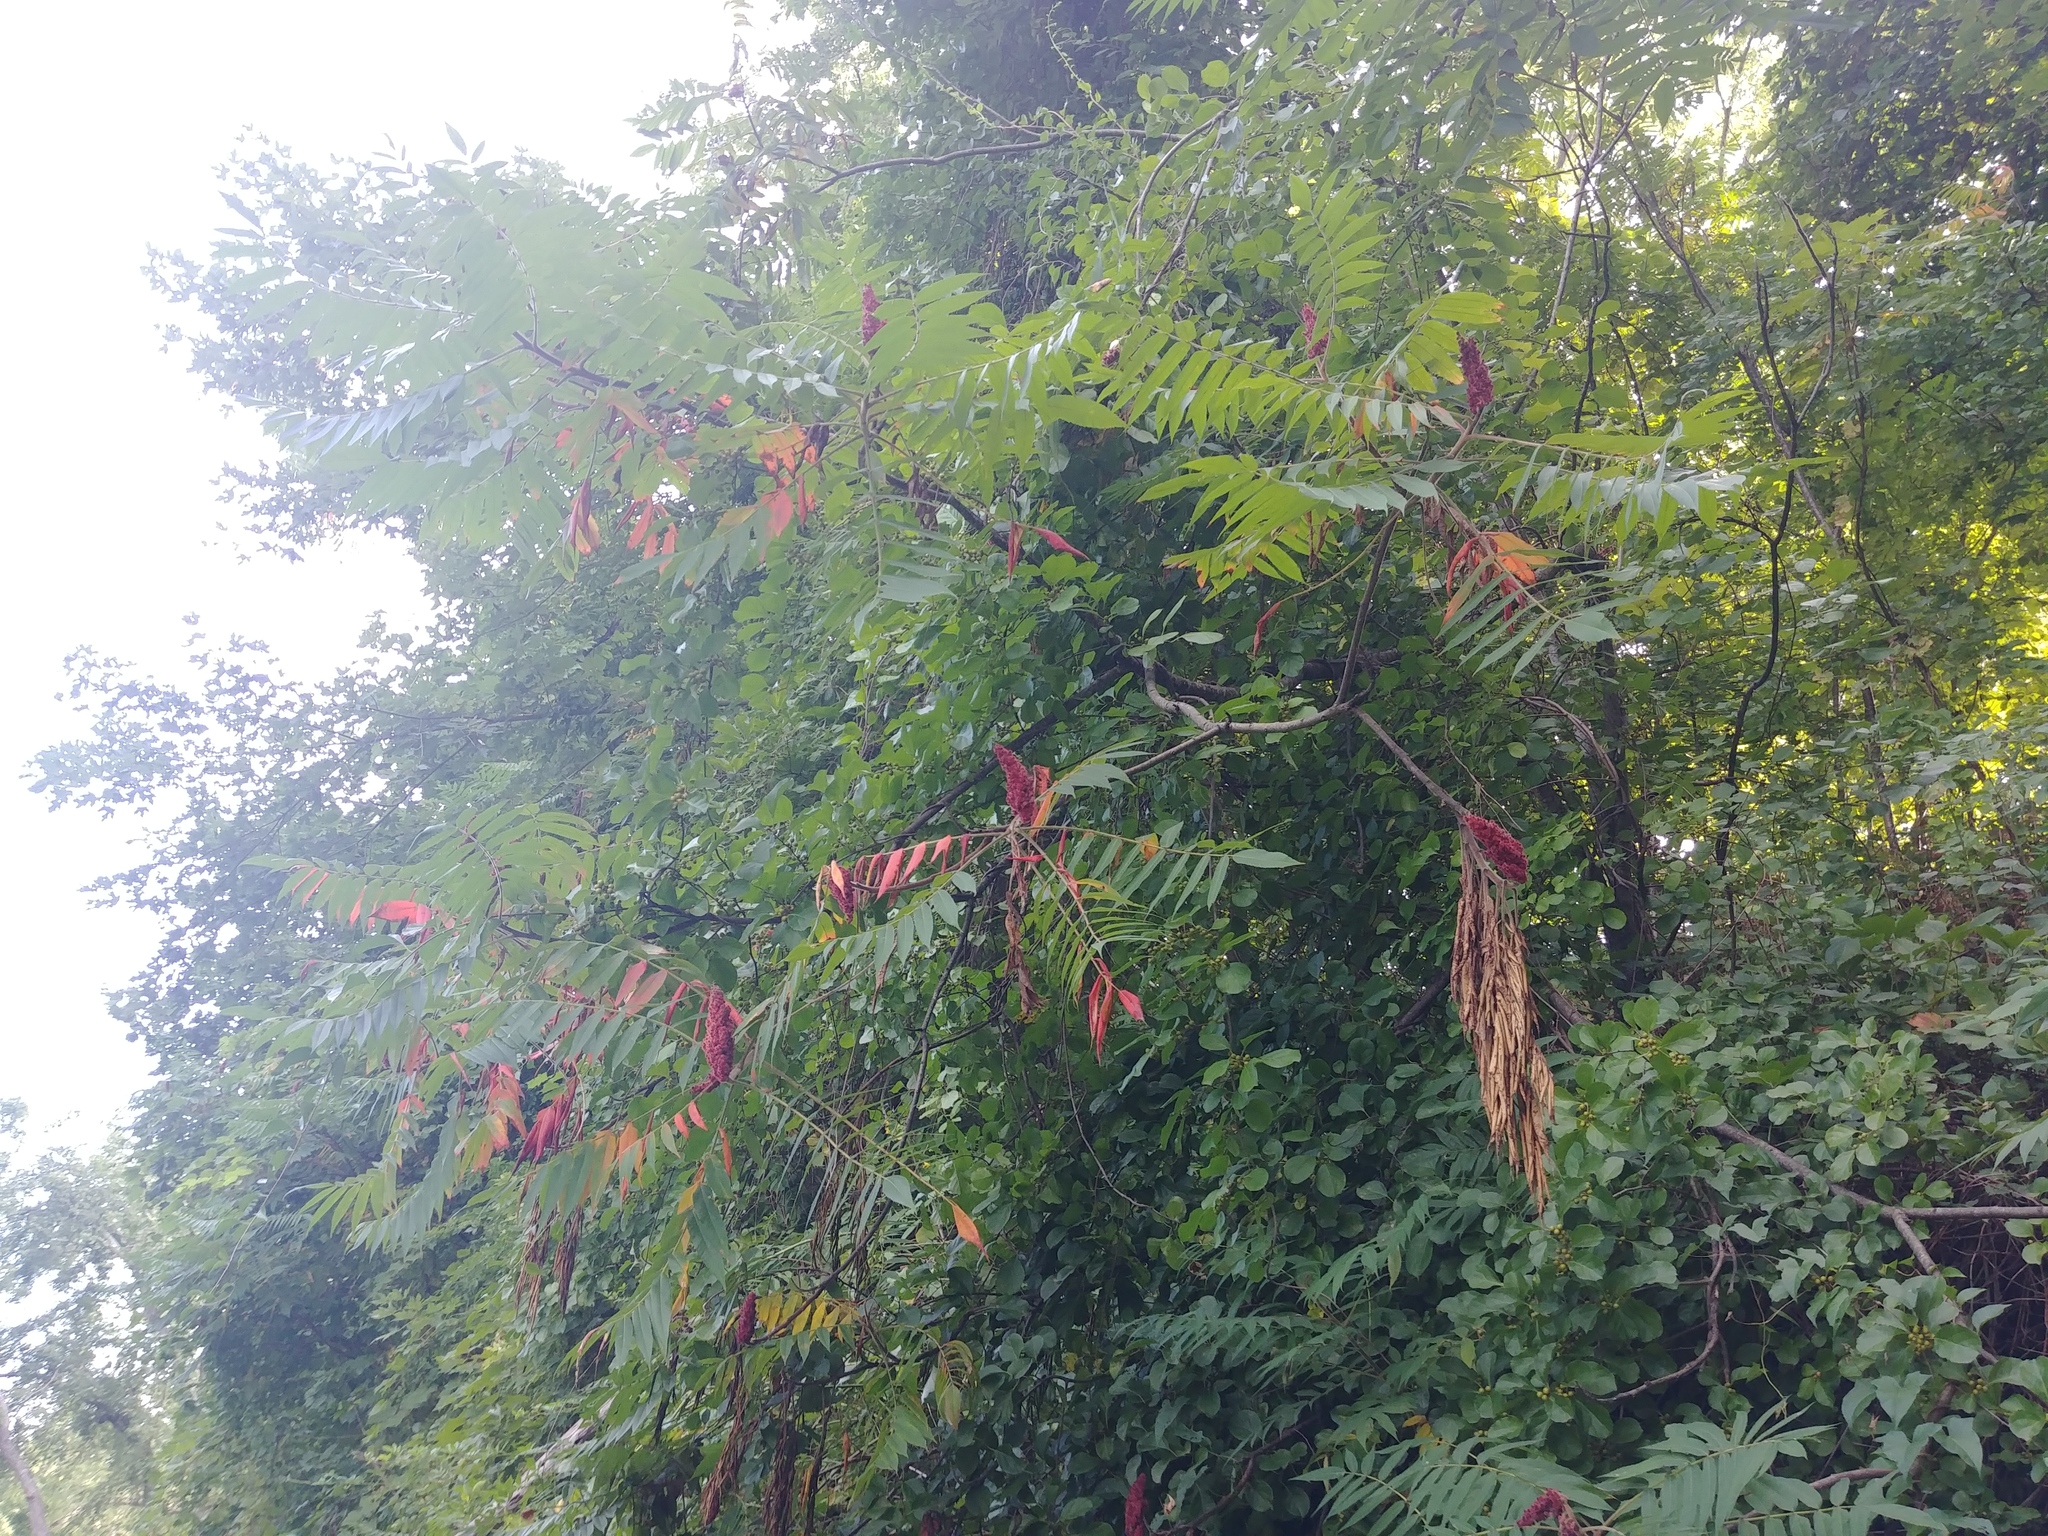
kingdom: Plantae
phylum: Tracheophyta
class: Magnoliopsida
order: Sapindales
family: Anacardiaceae
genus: Rhus
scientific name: Rhus typhina
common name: Staghorn sumac
